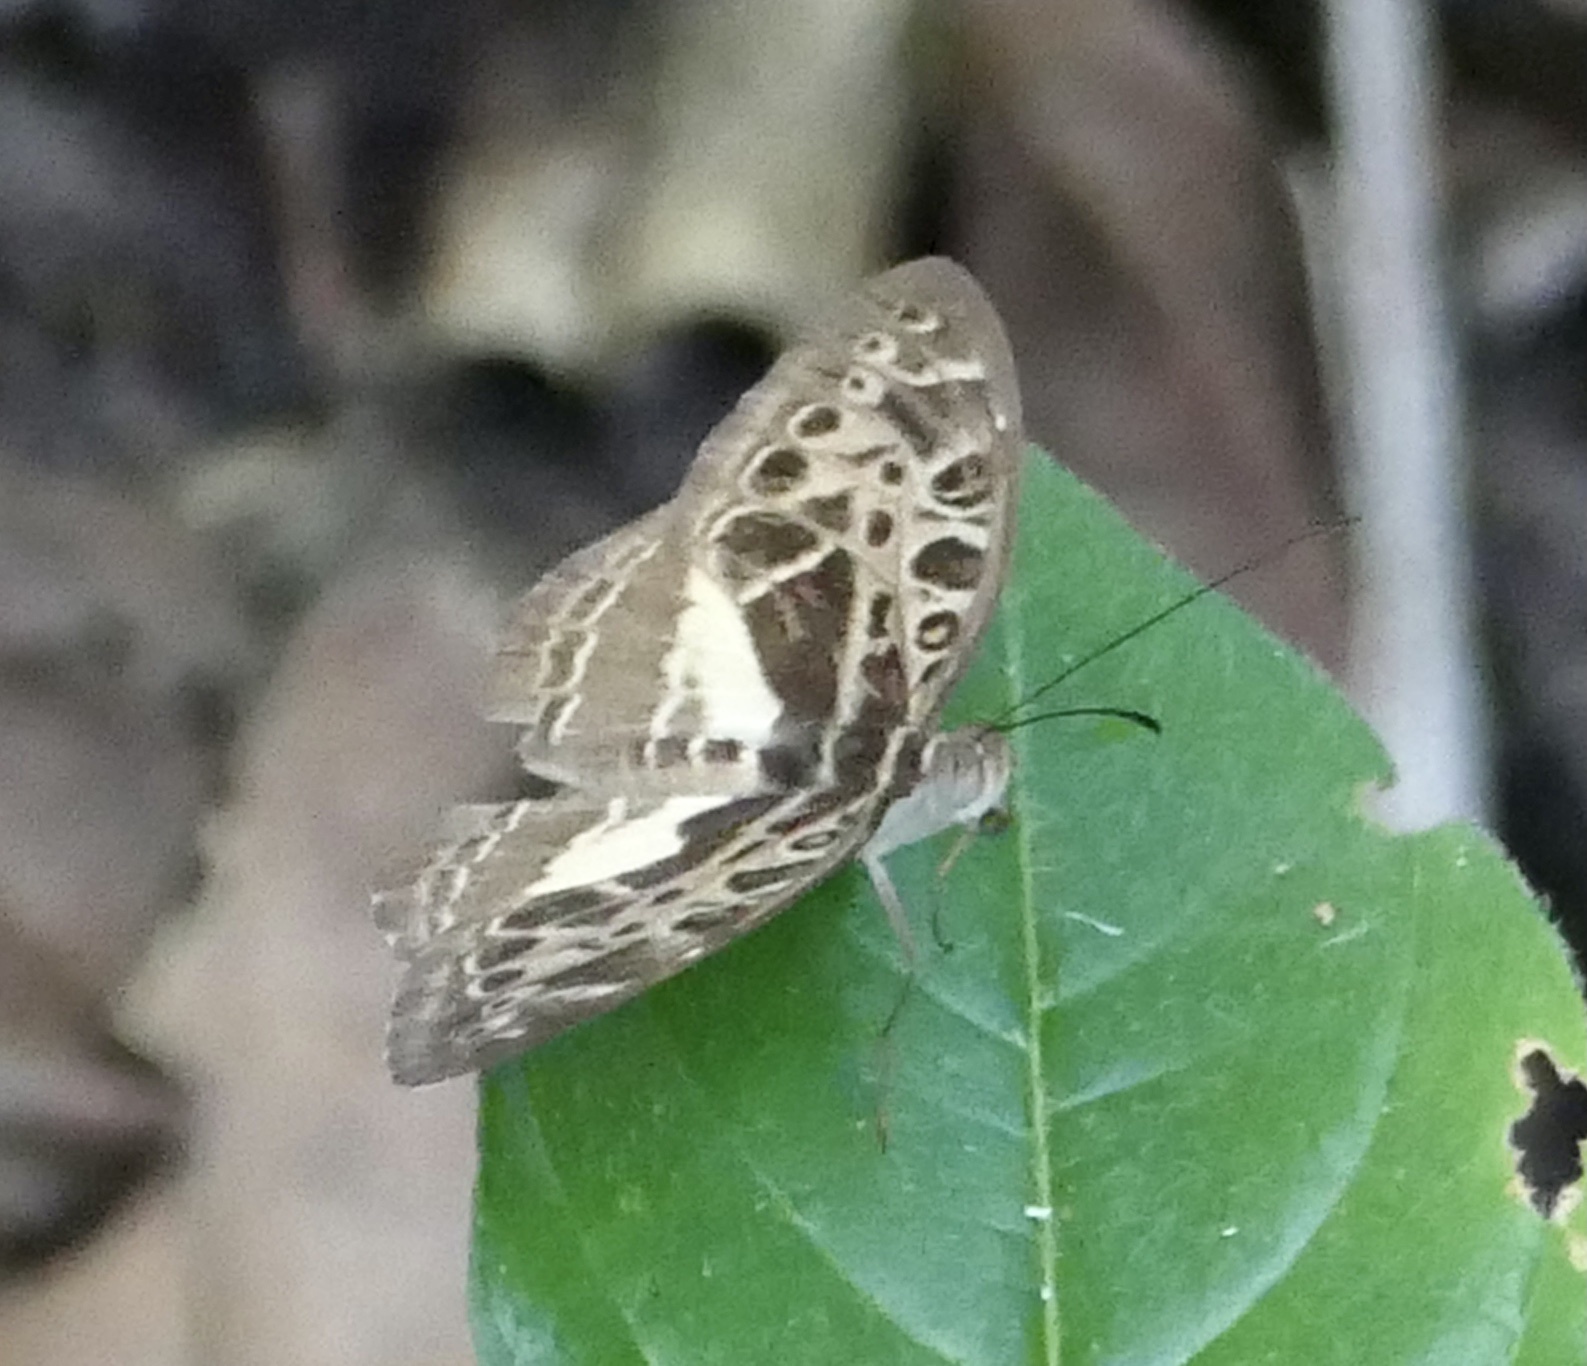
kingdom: Animalia
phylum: Arthropoda
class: Insecta
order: Lepidoptera
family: Nymphalidae
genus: Catuna
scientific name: Catuna
